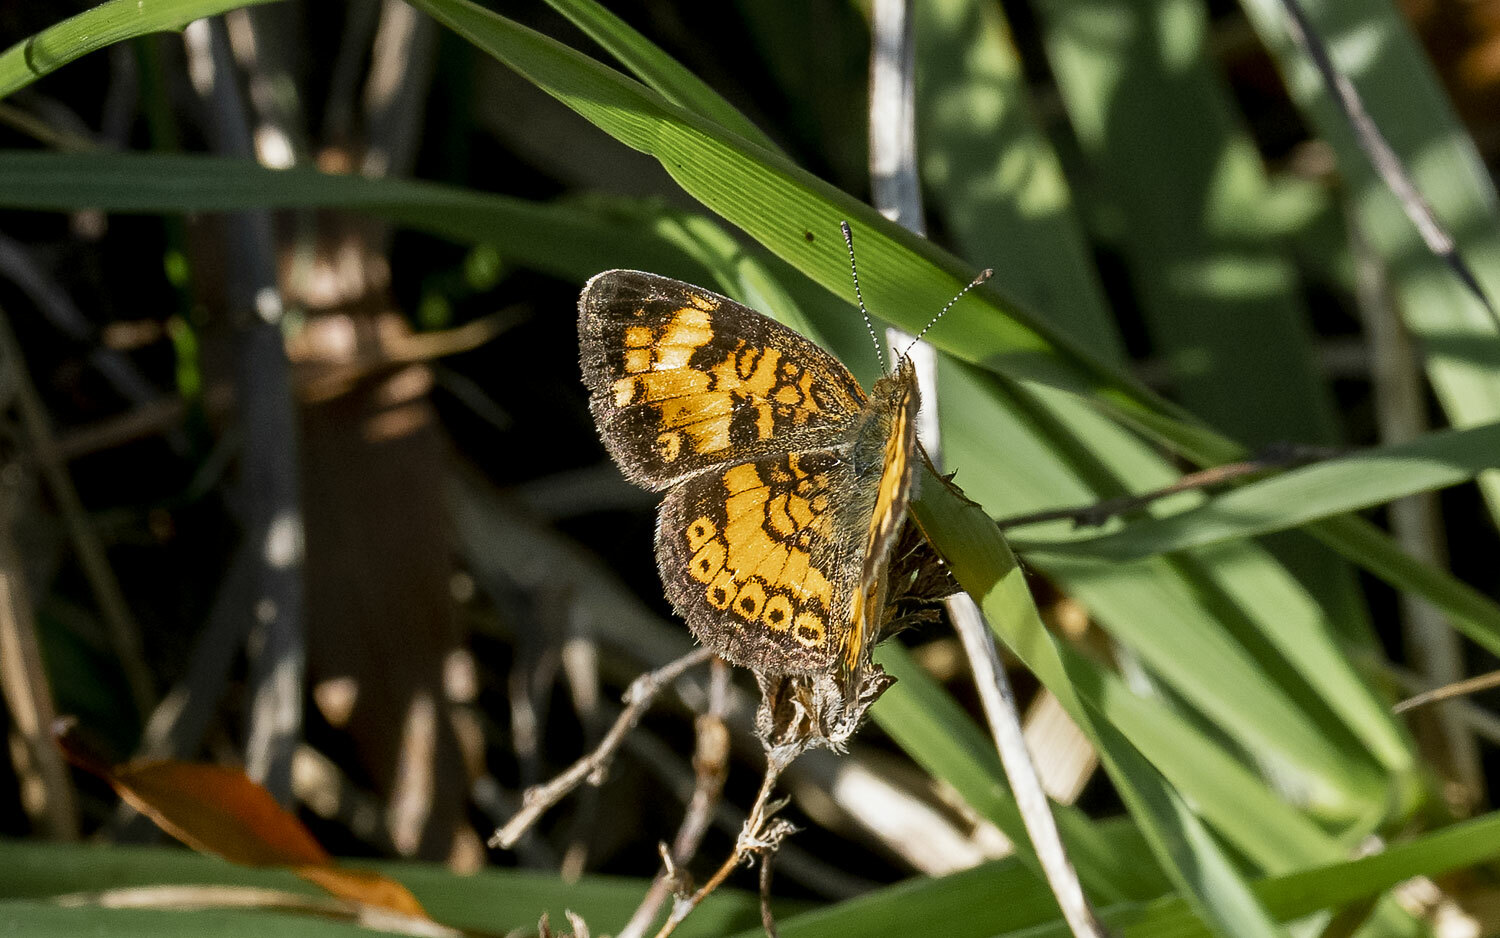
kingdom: Animalia
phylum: Arthropoda
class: Insecta
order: Lepidoptera
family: Nymphalidae
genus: Phyciodes
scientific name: Phyciodes tharos
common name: Pearl crescent
